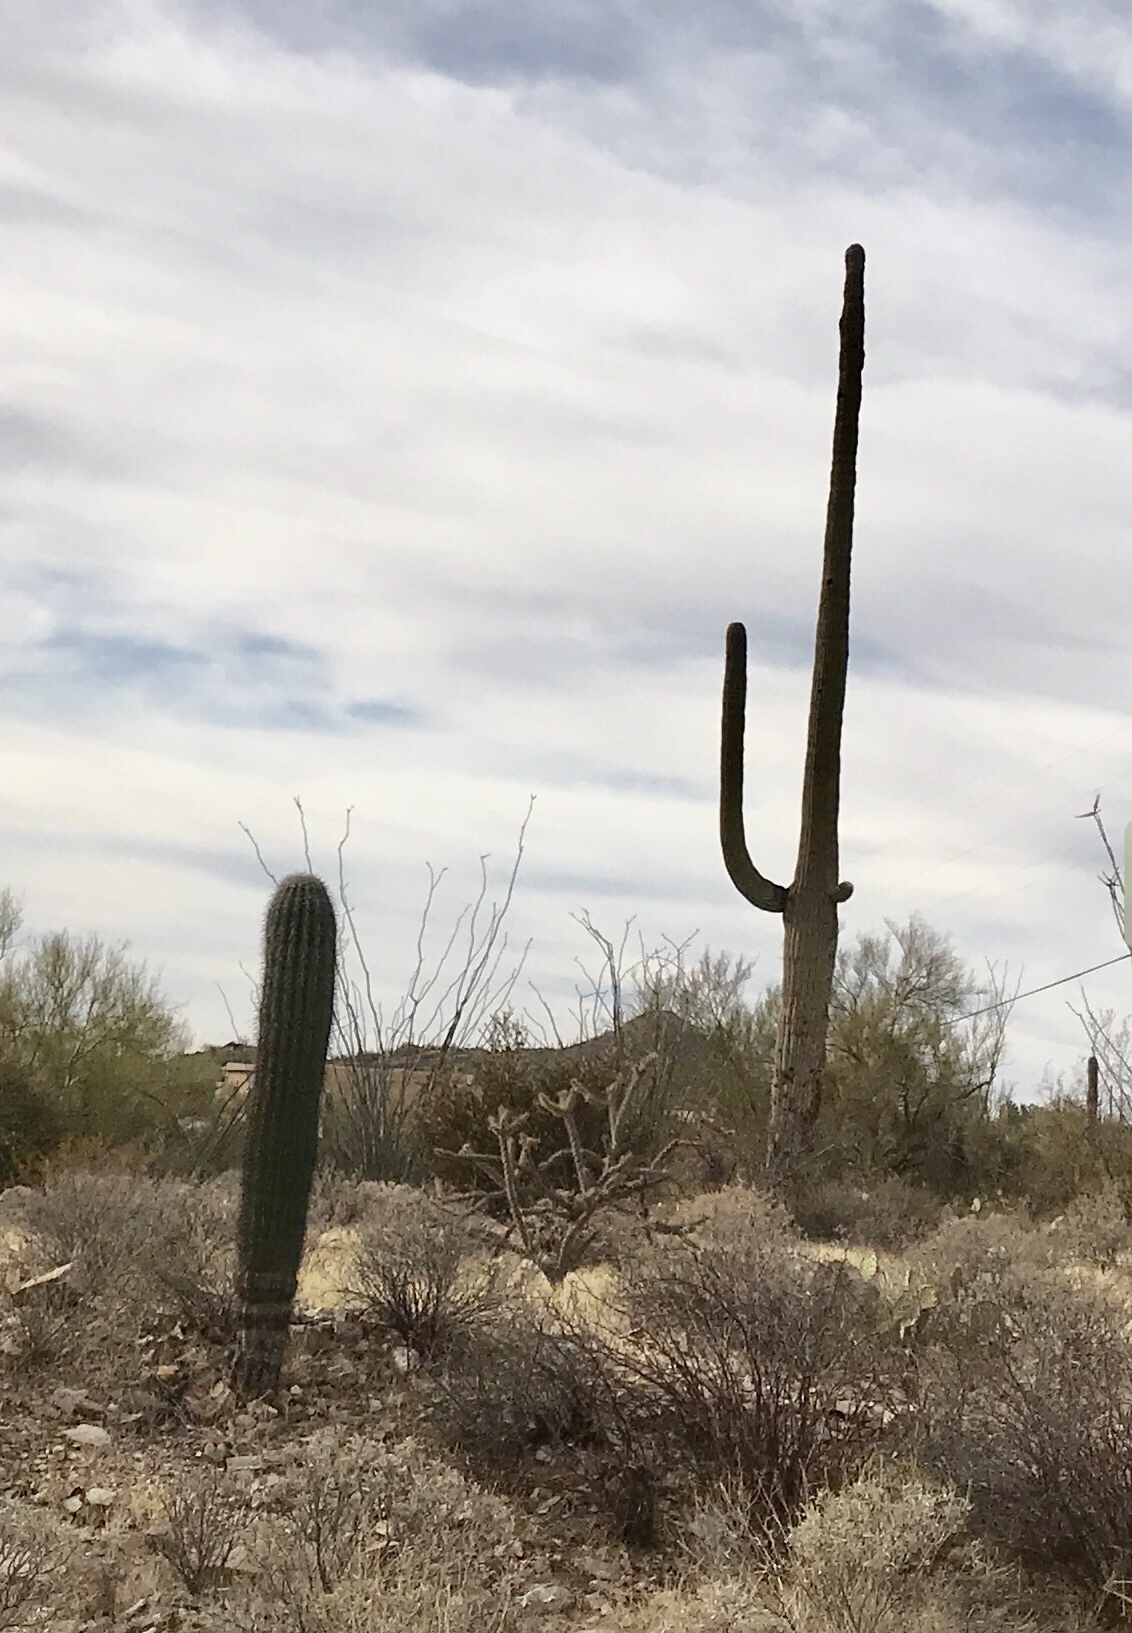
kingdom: Plantae
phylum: Tracheophyta
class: Magnoliopsida
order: Caryophyllales
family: Cactaceae
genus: Carnegiea
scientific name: Carnegiea gigantea
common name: Saguaro
